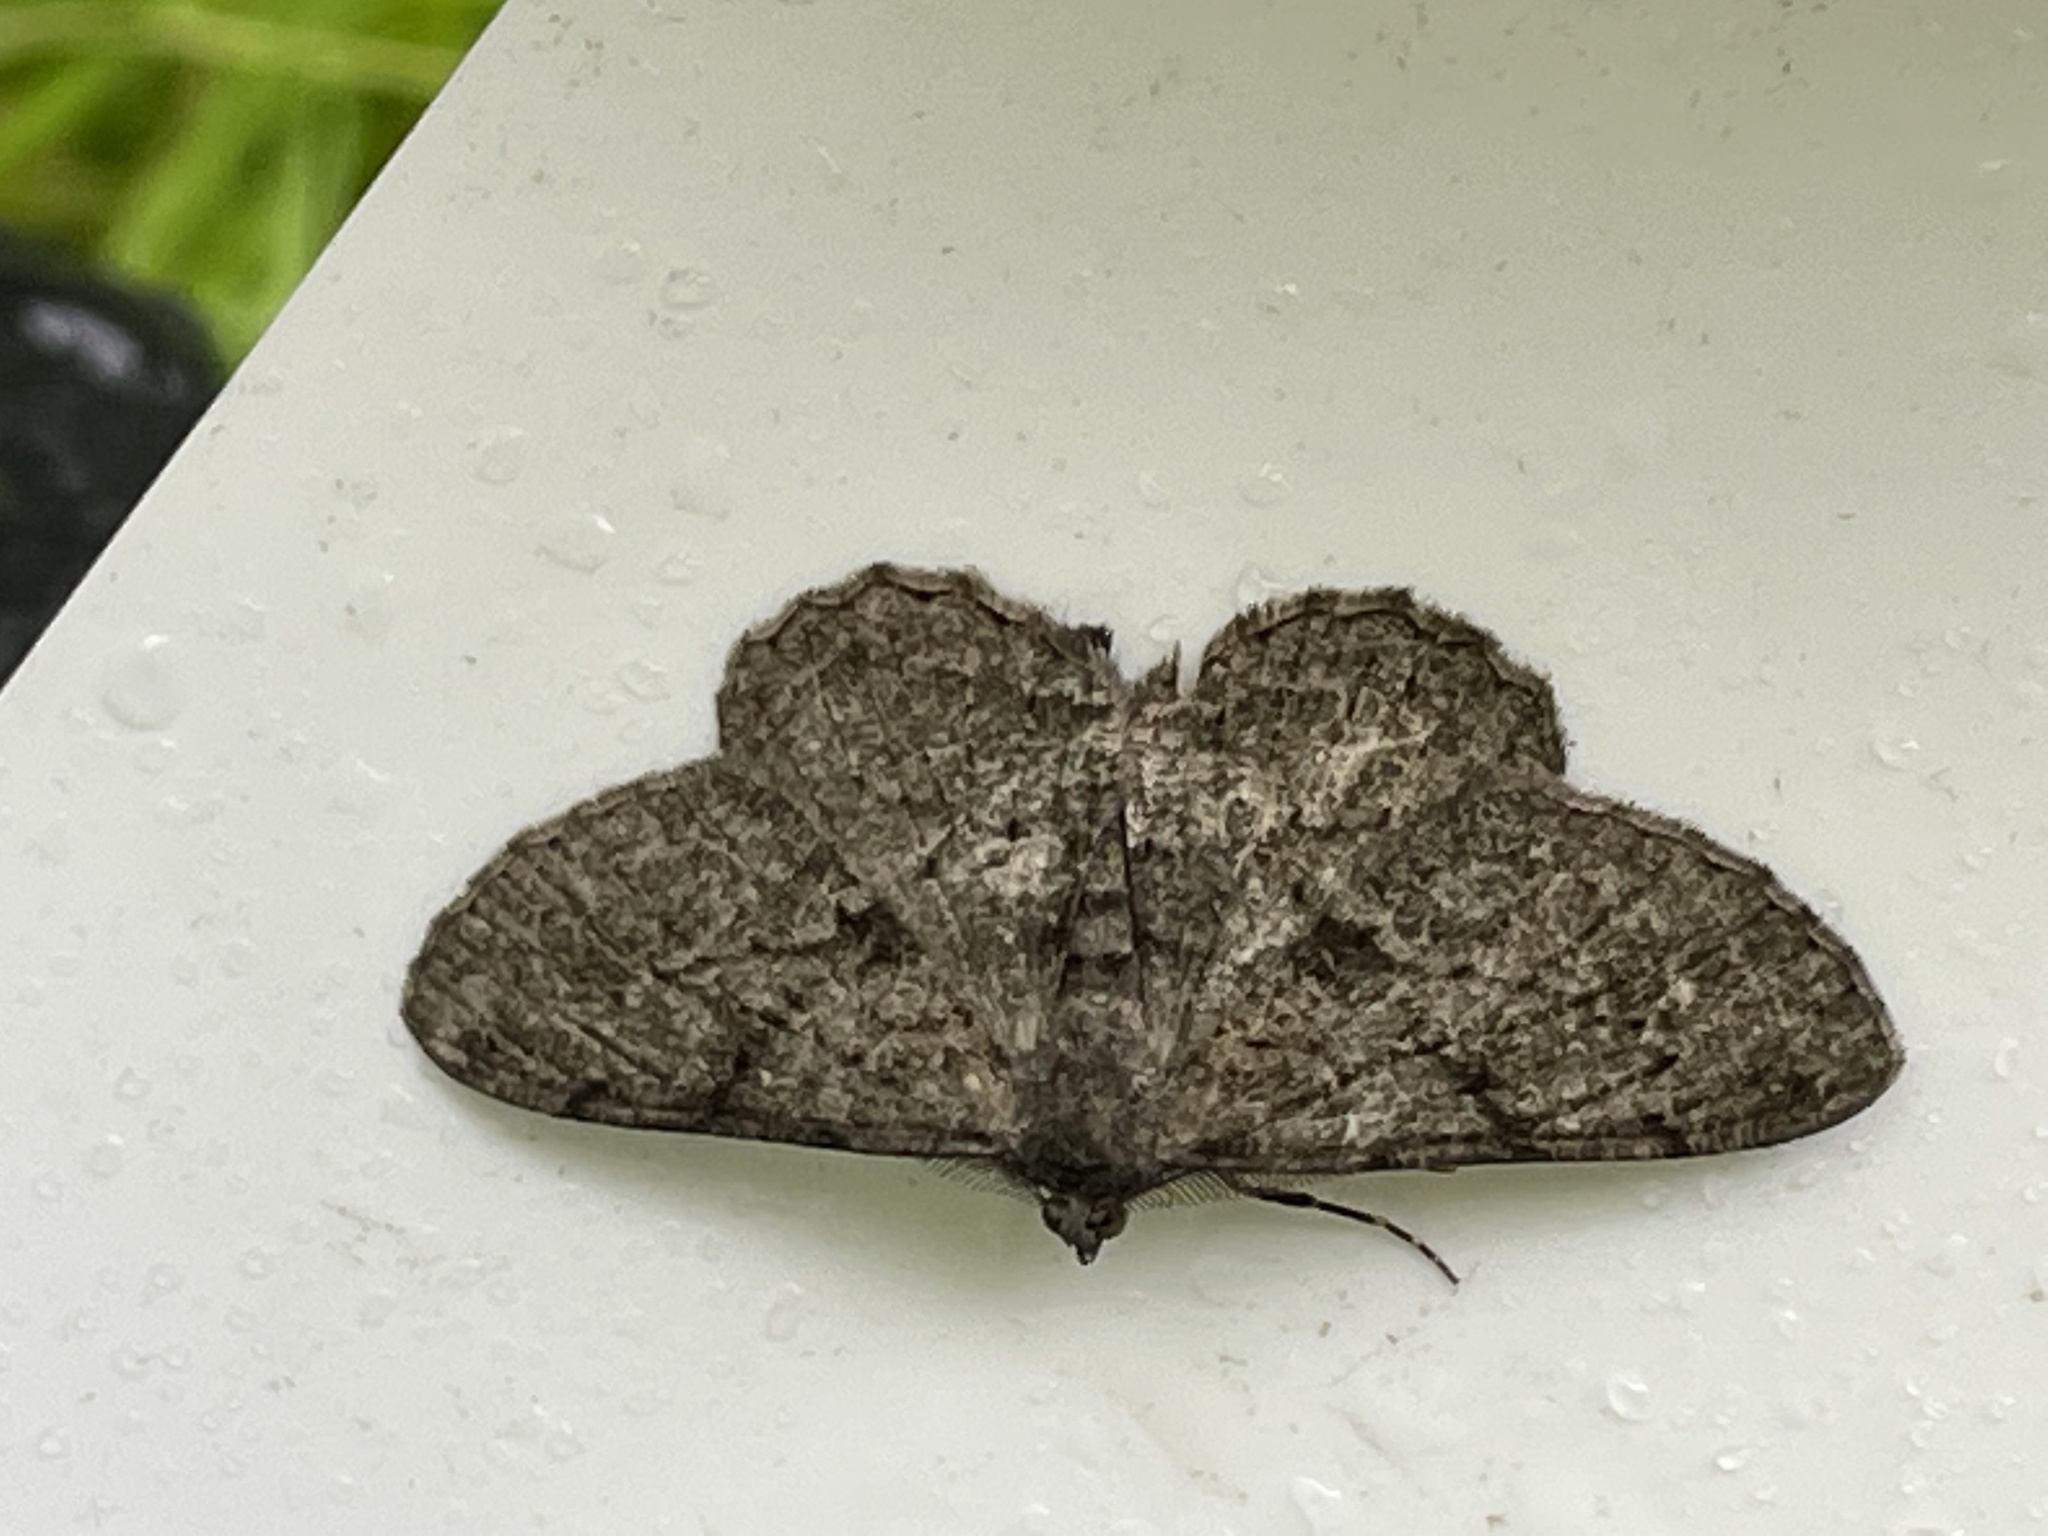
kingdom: Animalia
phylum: Arthropoda
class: Insecta
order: Lepidoptera
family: Geometridae
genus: Peribatodes
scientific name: Peribatodes rhomboidaria
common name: Willow beauty
